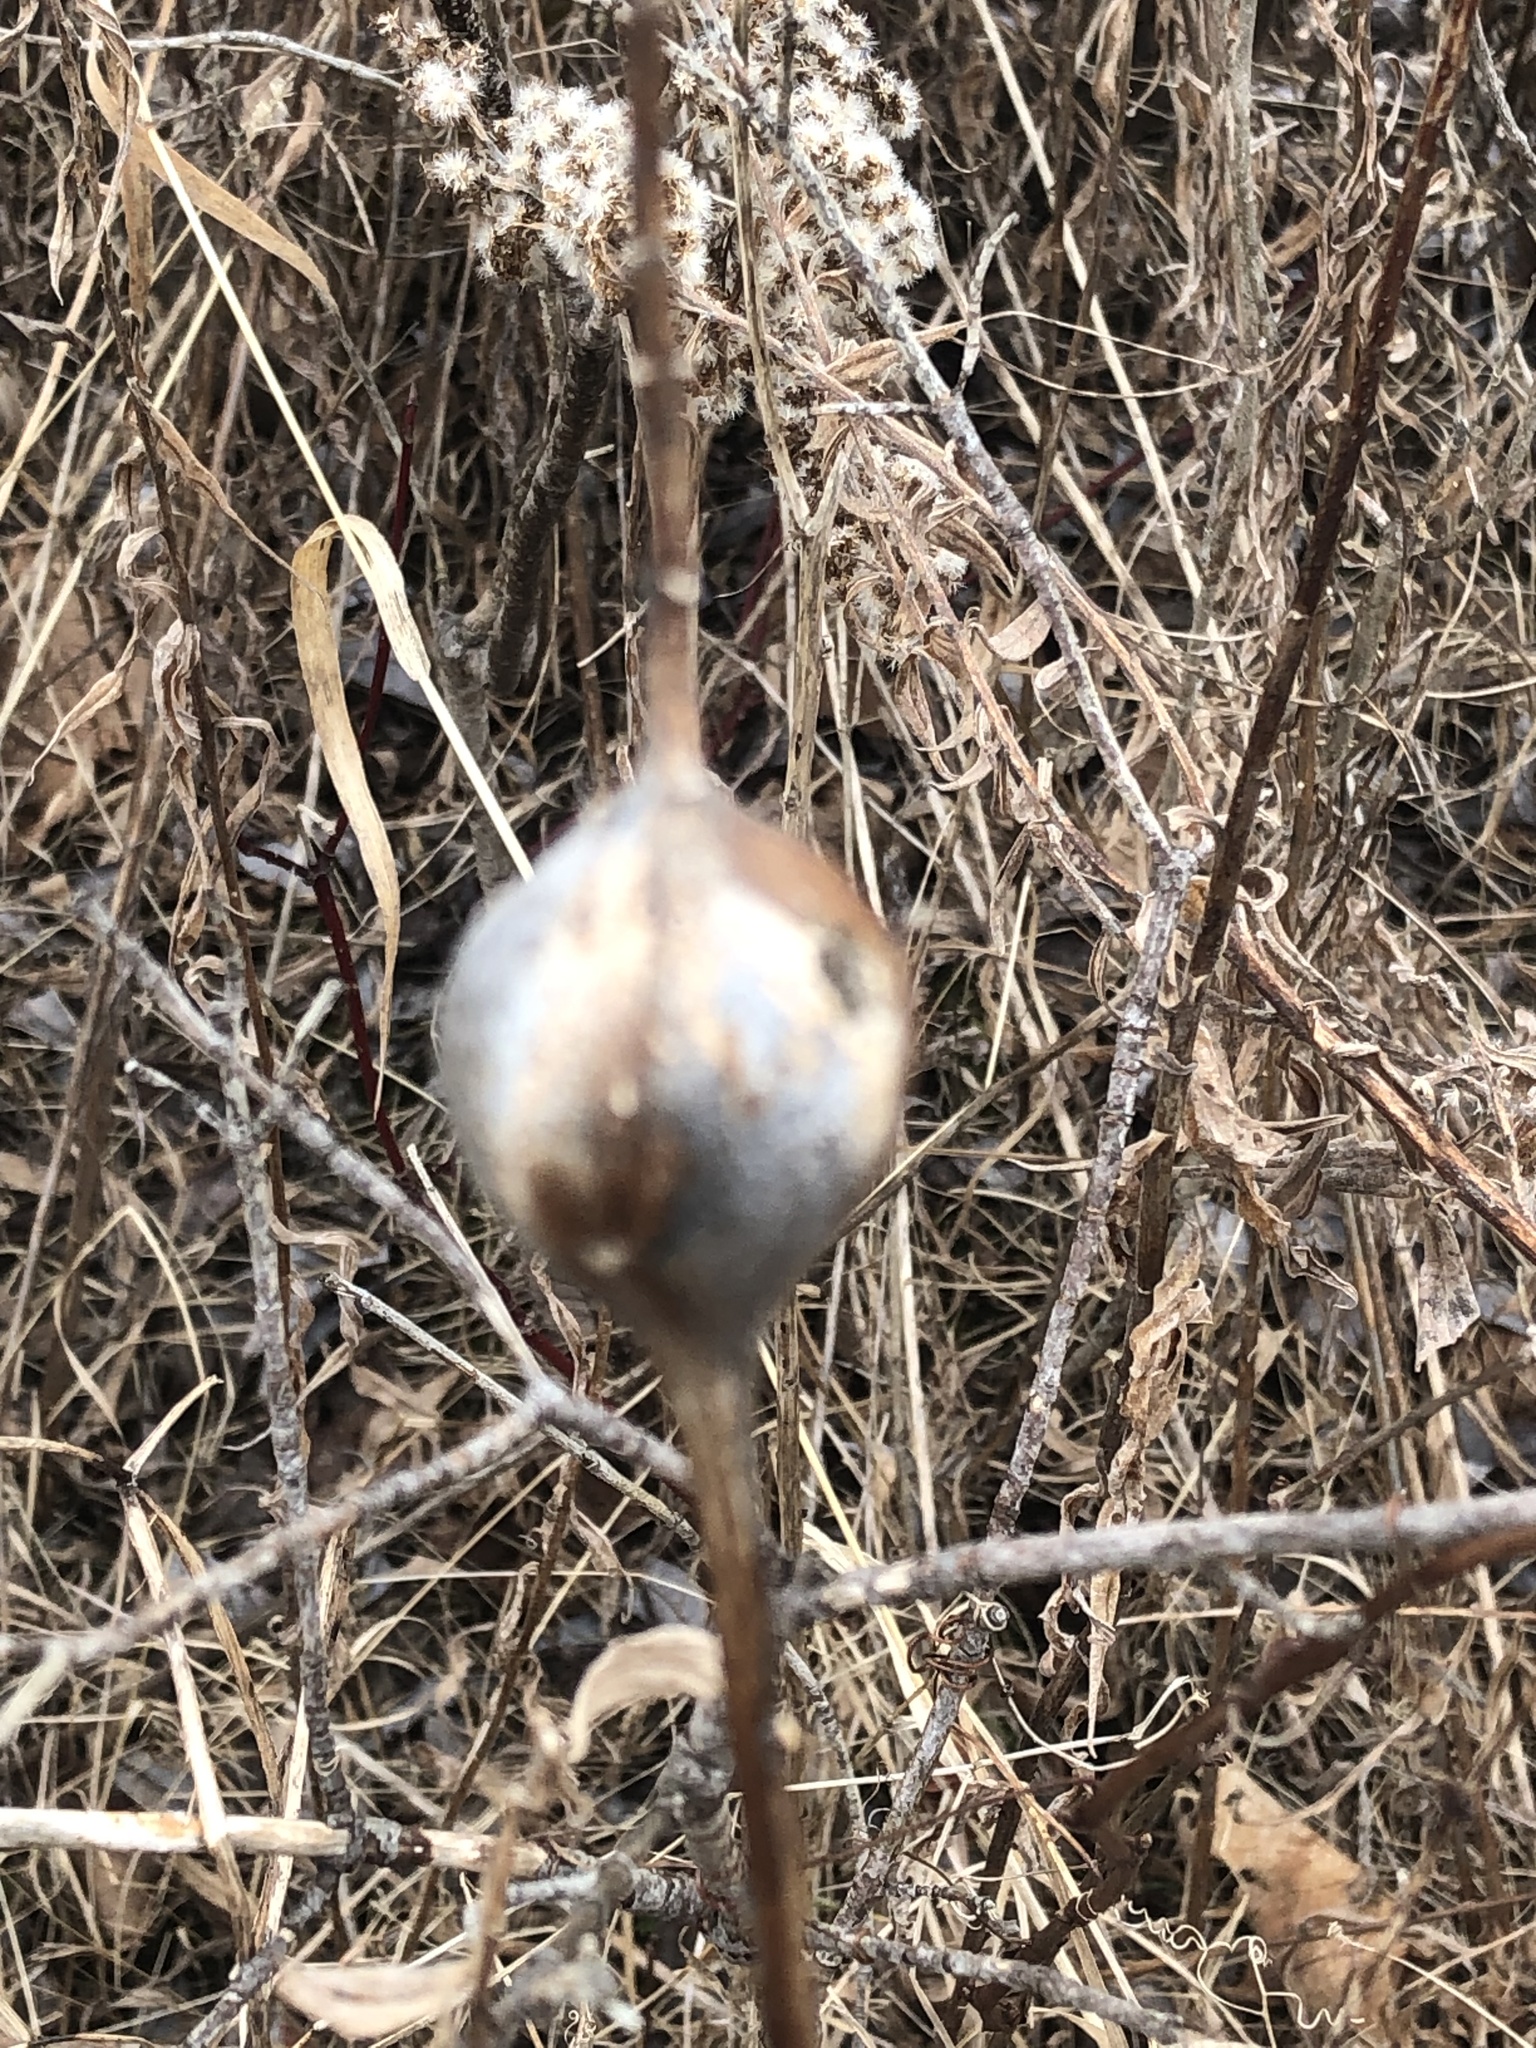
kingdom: Animalia
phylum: Arthropoda
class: Insecta
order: Diptera
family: Tephritidae
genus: Eurosta
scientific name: Eurosta solidaginis
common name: Goldenrod gall fly
